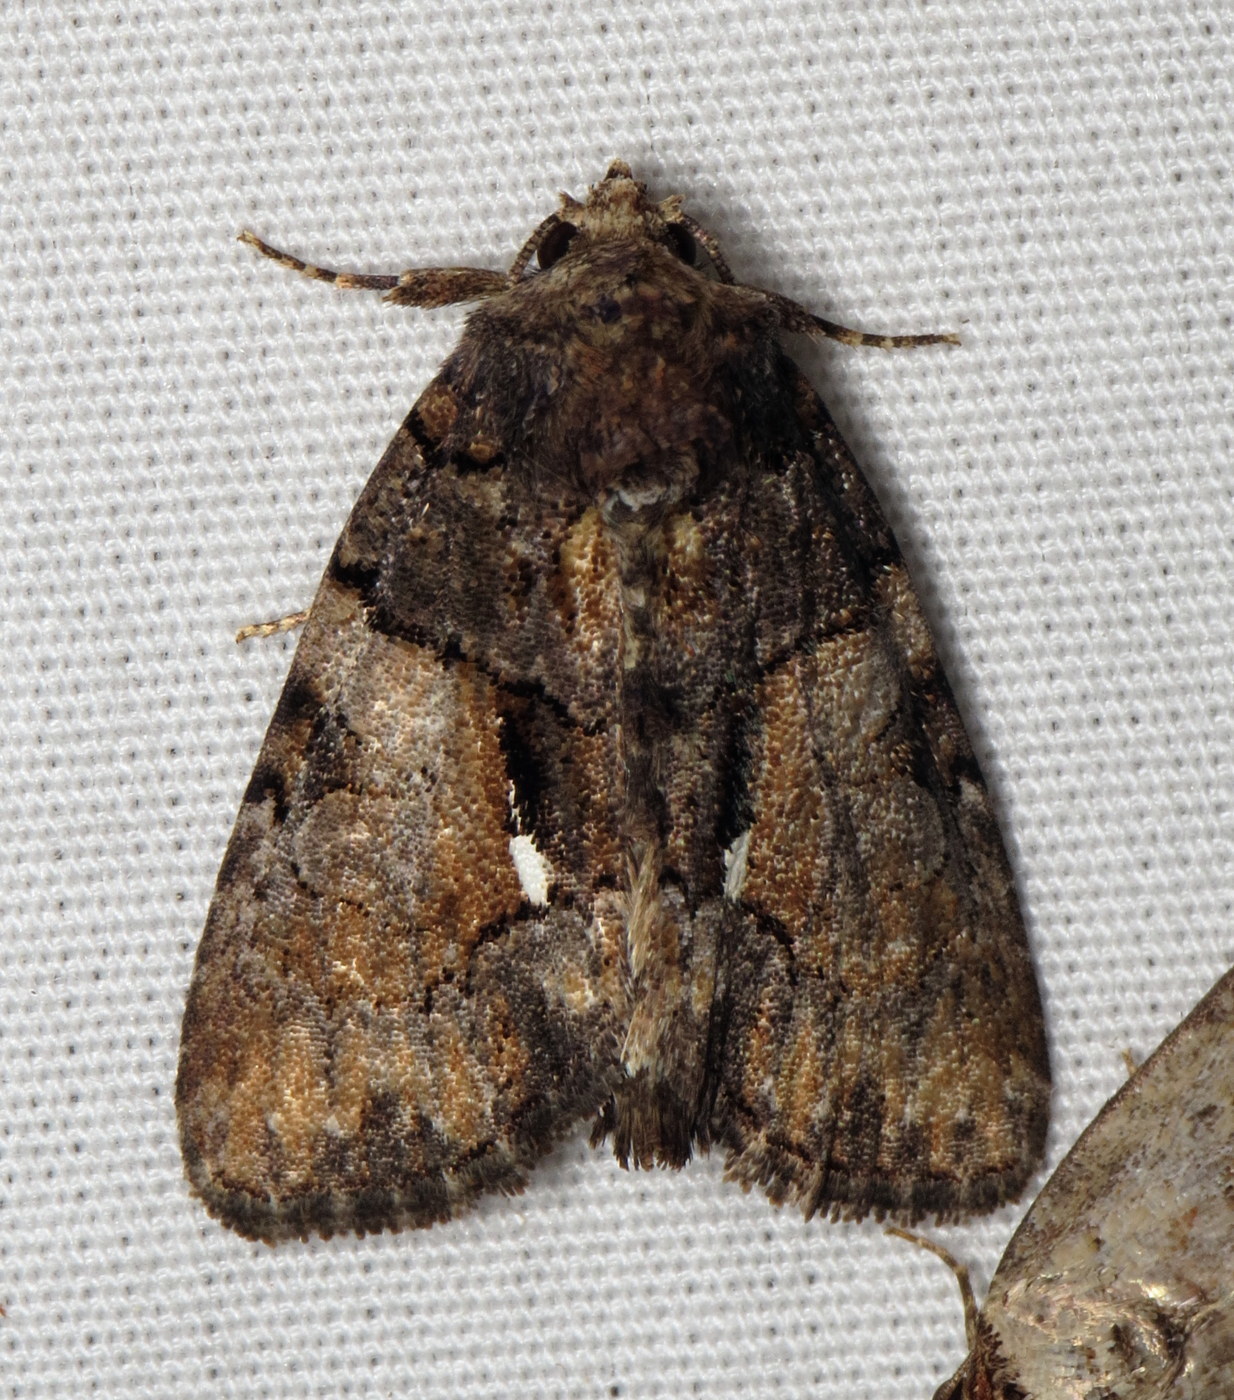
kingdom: Animalia
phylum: Arthropoda
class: Insecta
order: Lepidoptera
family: Noctuidae
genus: Chytonix
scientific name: Chytonix palliatricula
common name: Cloaked marvel
